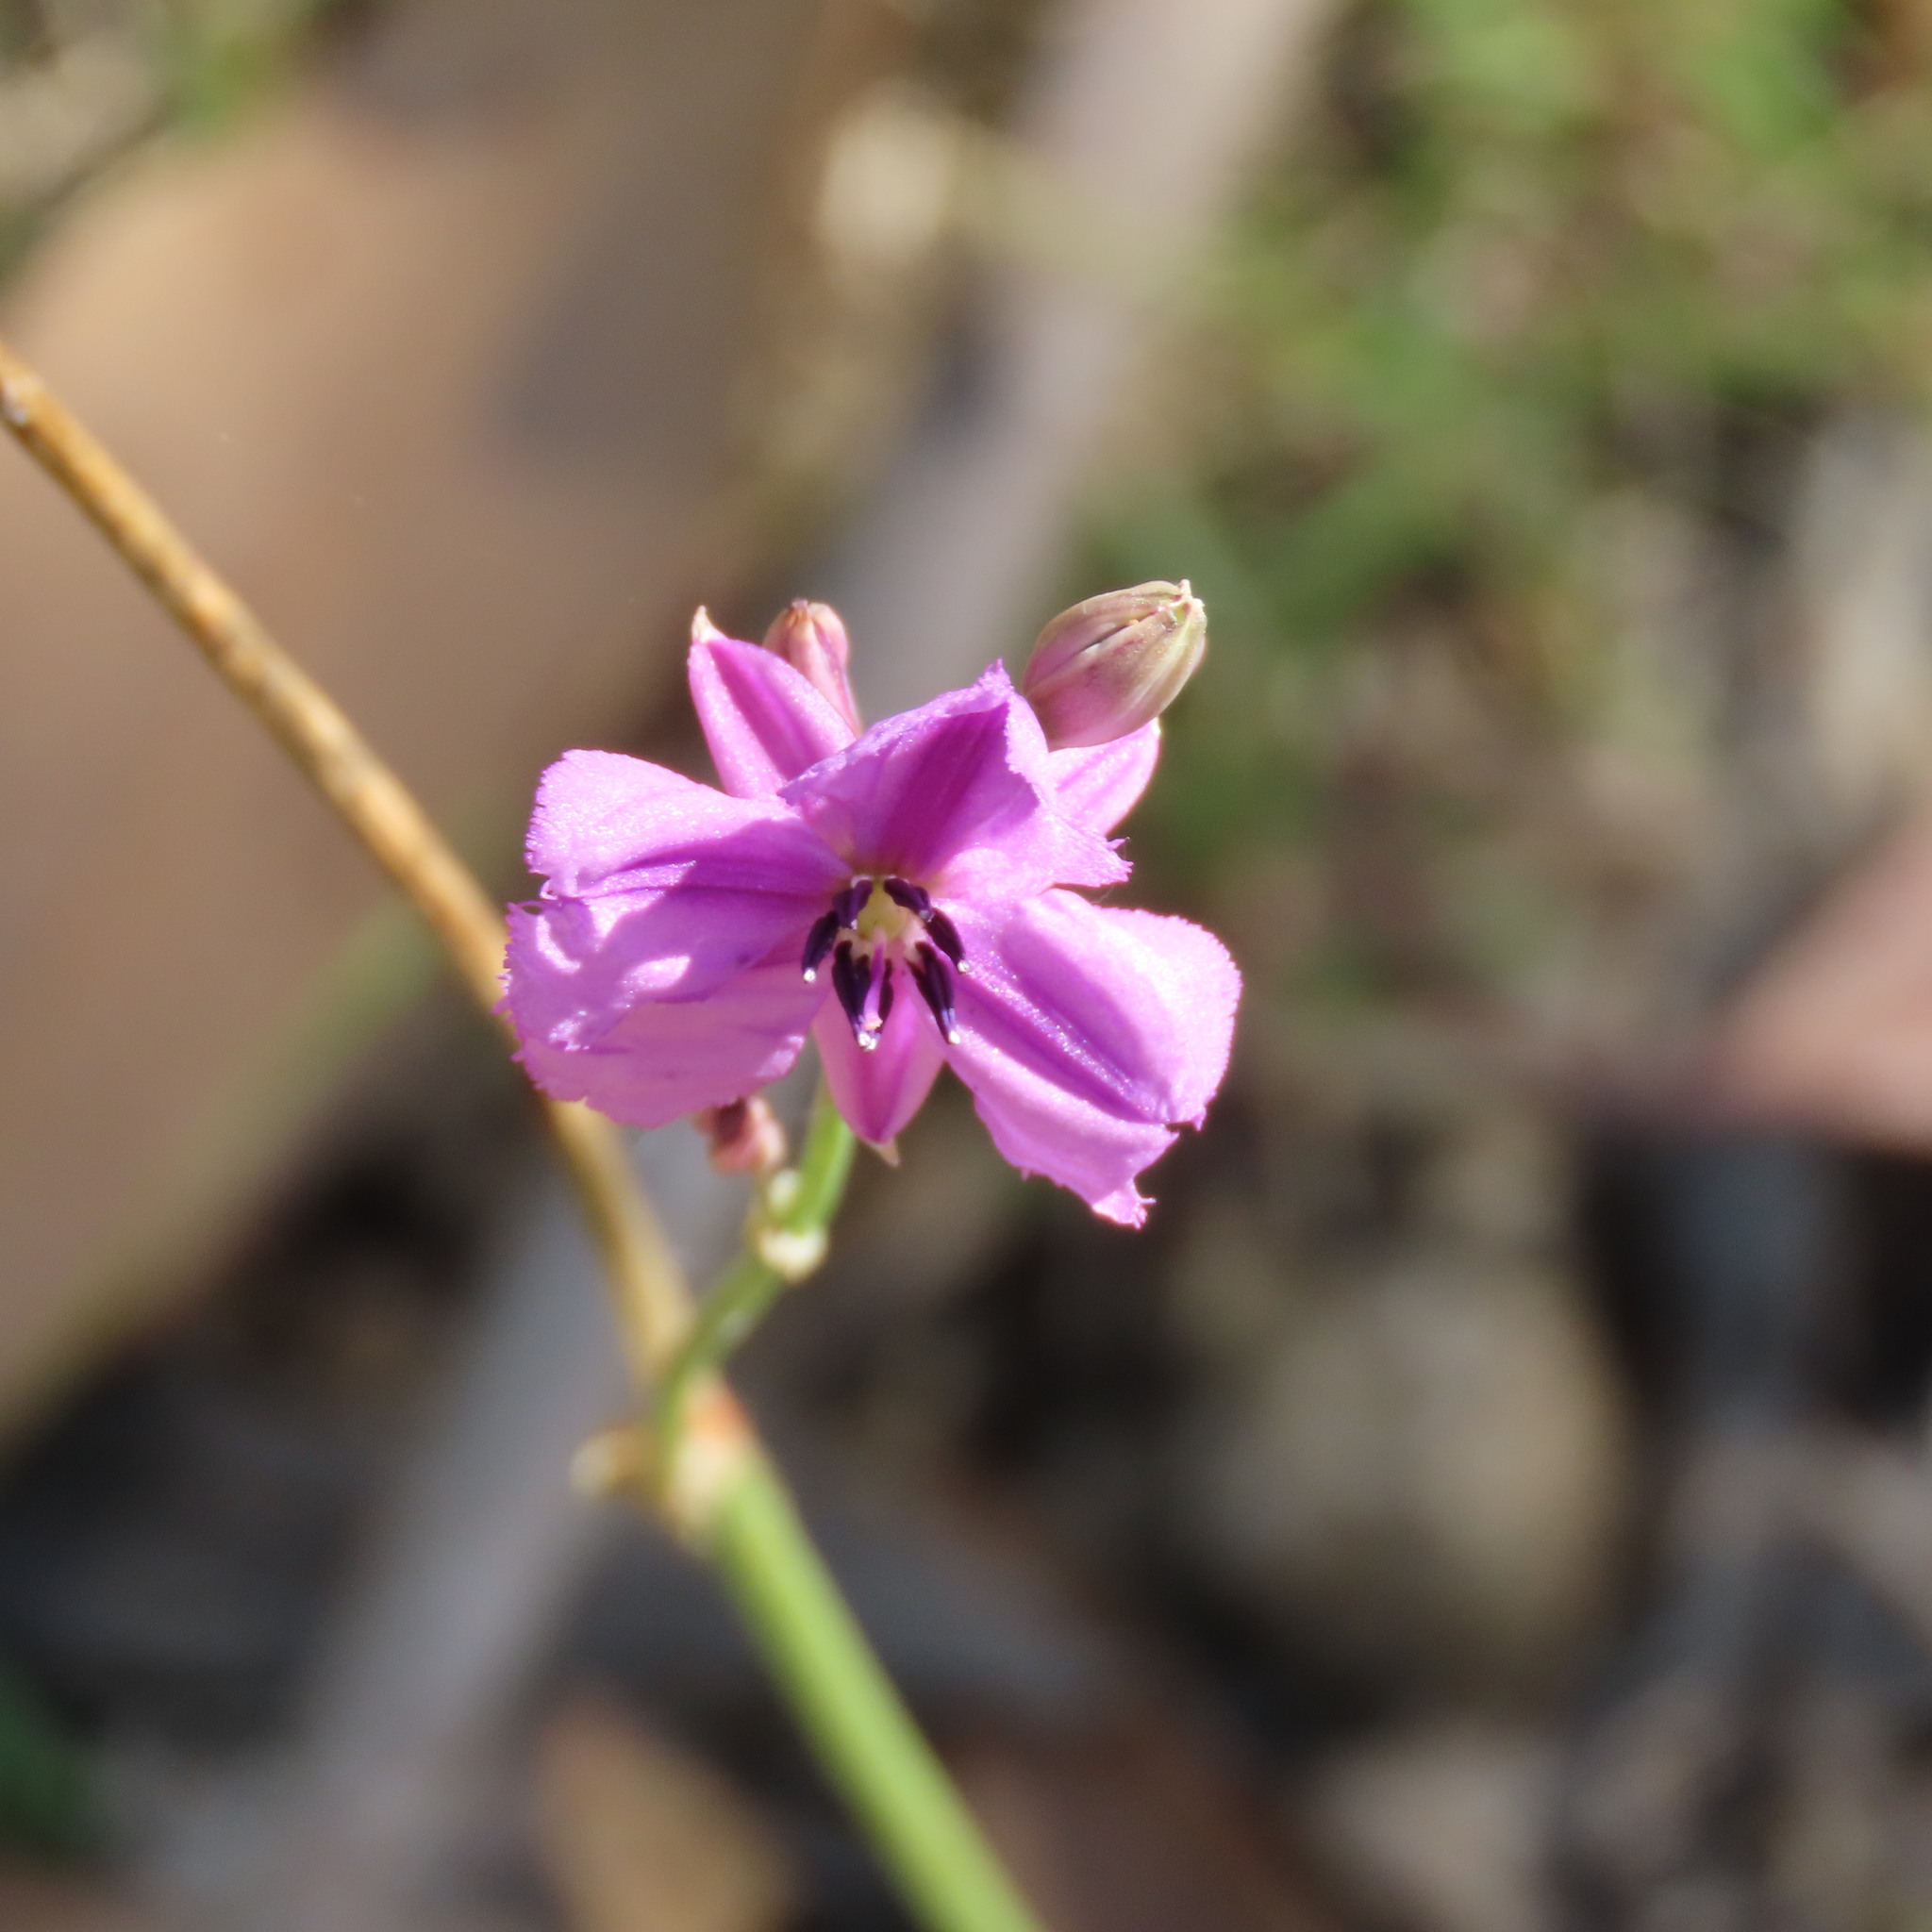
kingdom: Plantae
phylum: Tracheophyta
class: Liliopsida
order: Asparagales
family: Asparagaceae
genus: Arthropodium
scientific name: Arthropodium strictum
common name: Chocolate-lily
